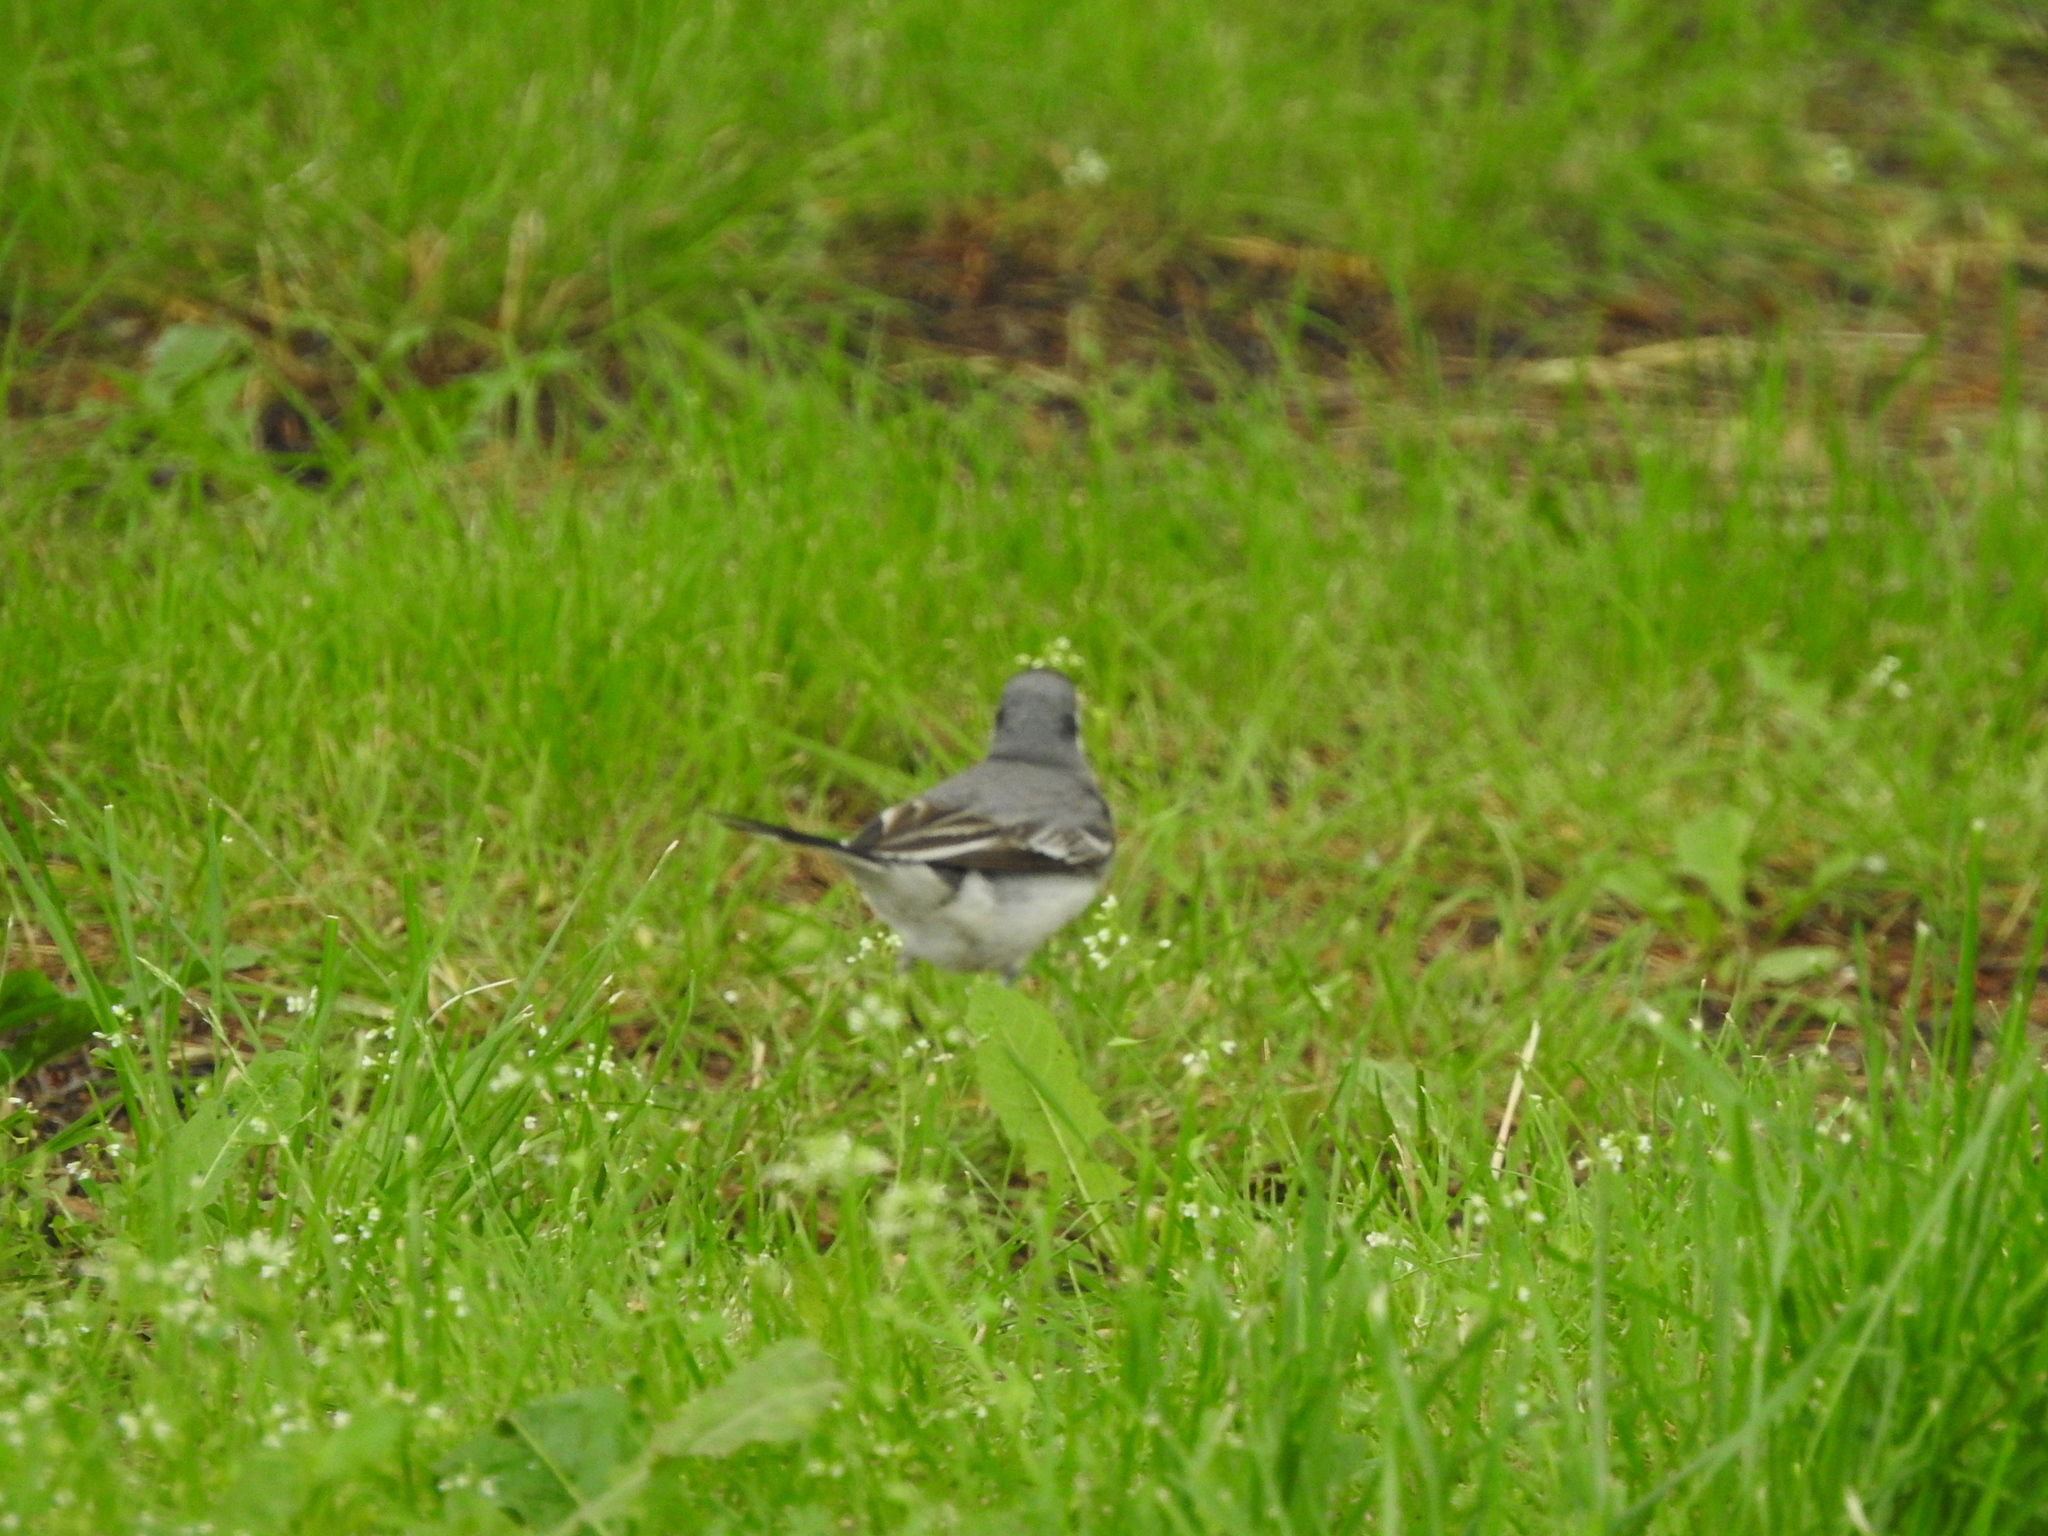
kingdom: Animalia
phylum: Chordata
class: Aves
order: Passeriformes
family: Motacillidae
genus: Motacilla
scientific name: Motacilla alba
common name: White wagtail
